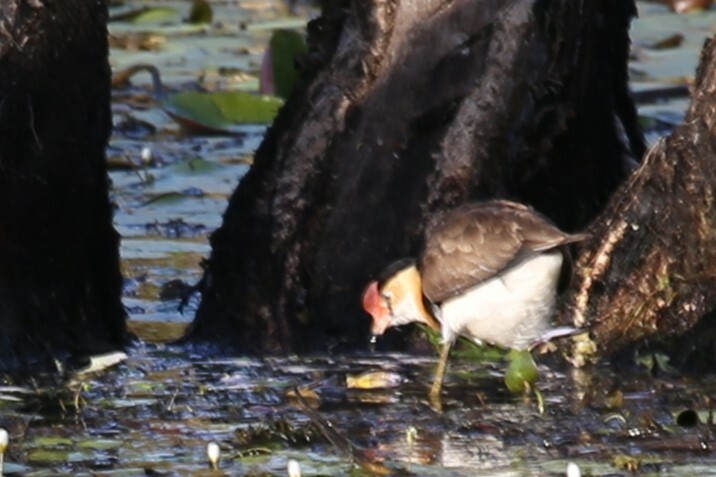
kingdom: Animalia
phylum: Chordata
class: Aves
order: Charadriiformes
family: Jacanidae
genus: Irediparra
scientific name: Irediparra gallinacea
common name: Comb-crested jacana
